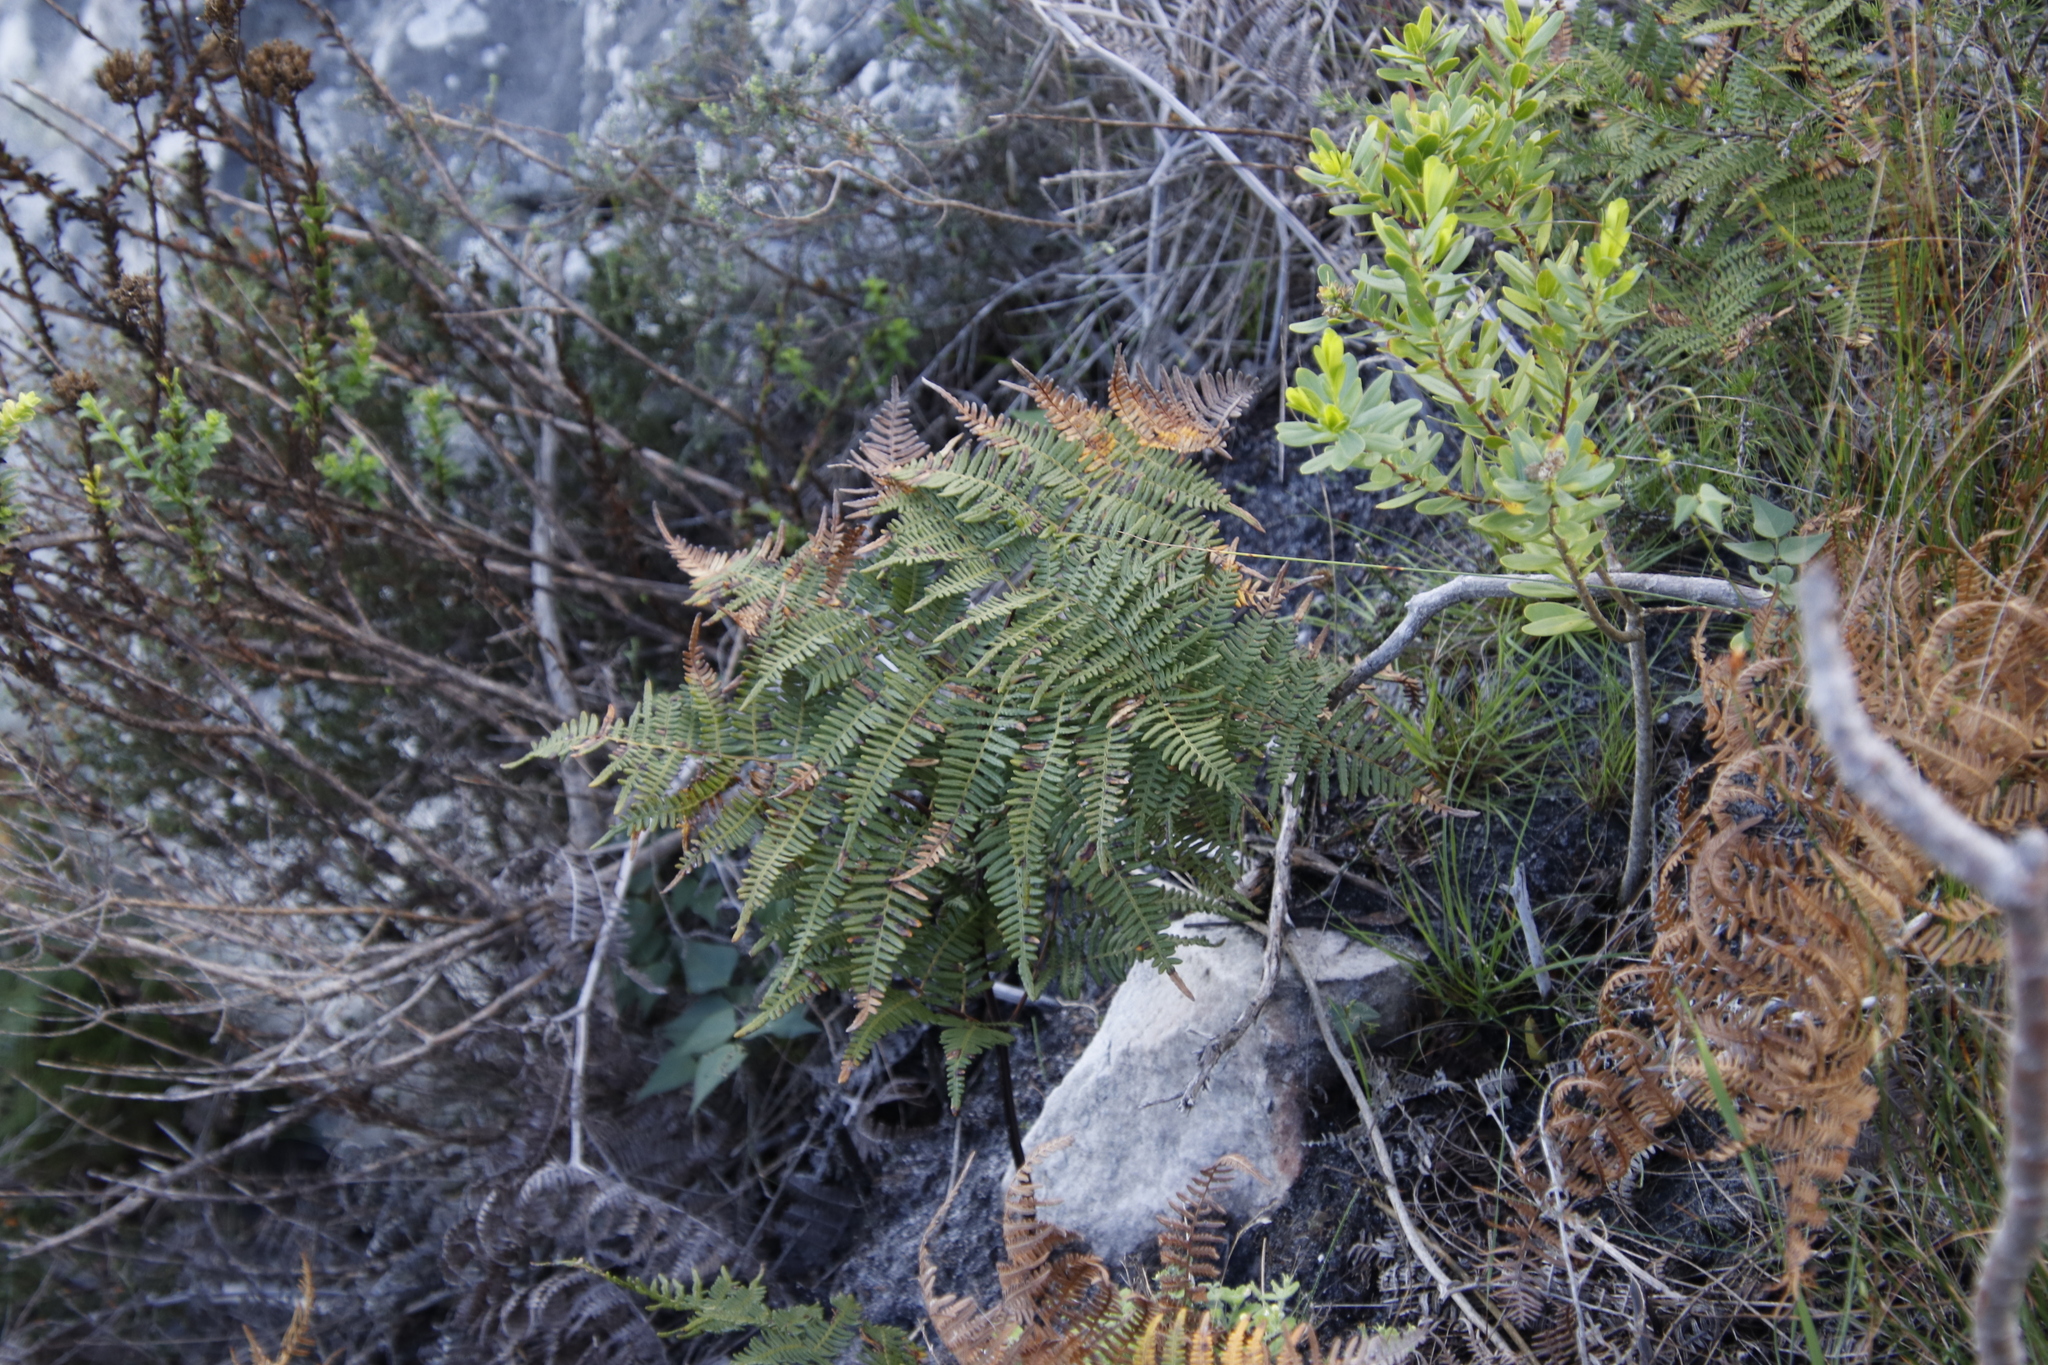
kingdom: Plantae
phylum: Tracheophyta
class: Polypodiopsida
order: Polypodiales
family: Dennstaedtiaceae
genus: Pteridium
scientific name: Pteridium aquilinum
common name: Bracken
